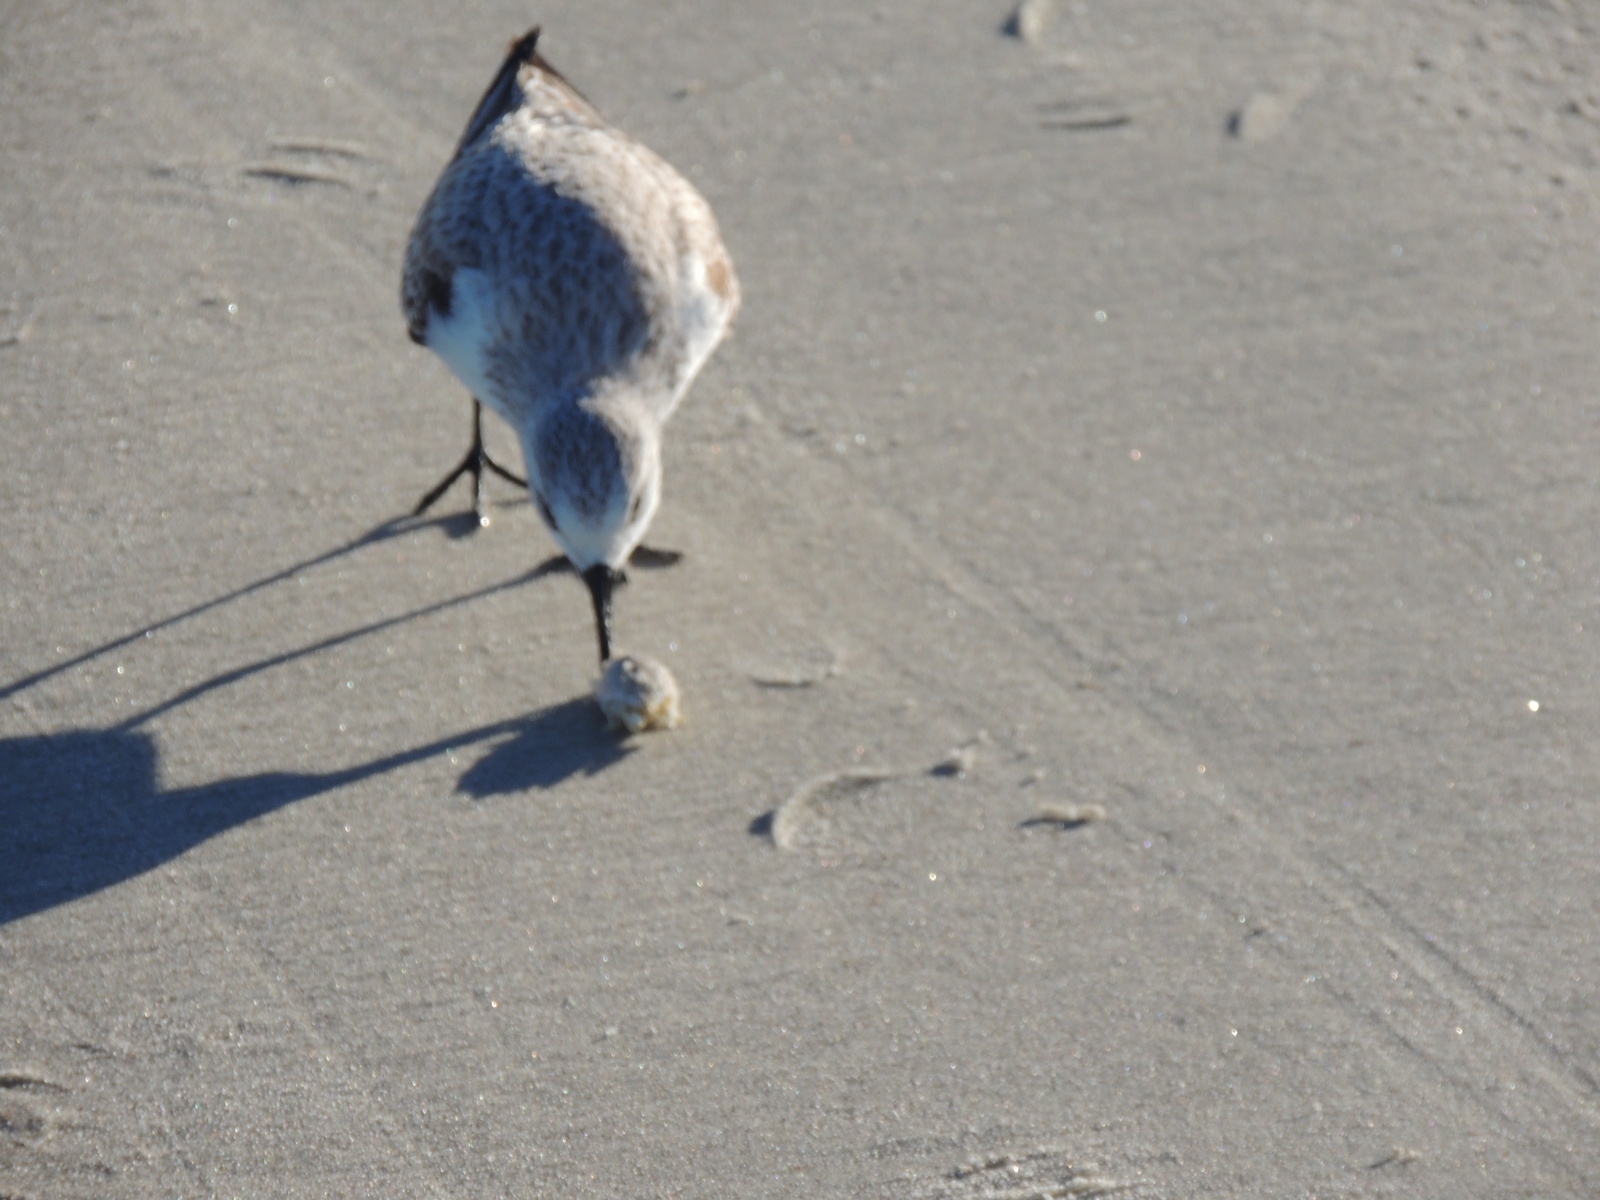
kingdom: Animalia
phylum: Chordata
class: Aves
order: Charadriiformes
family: Scolopacidae
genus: Calidris
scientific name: Calidris alba
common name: Sanderling
